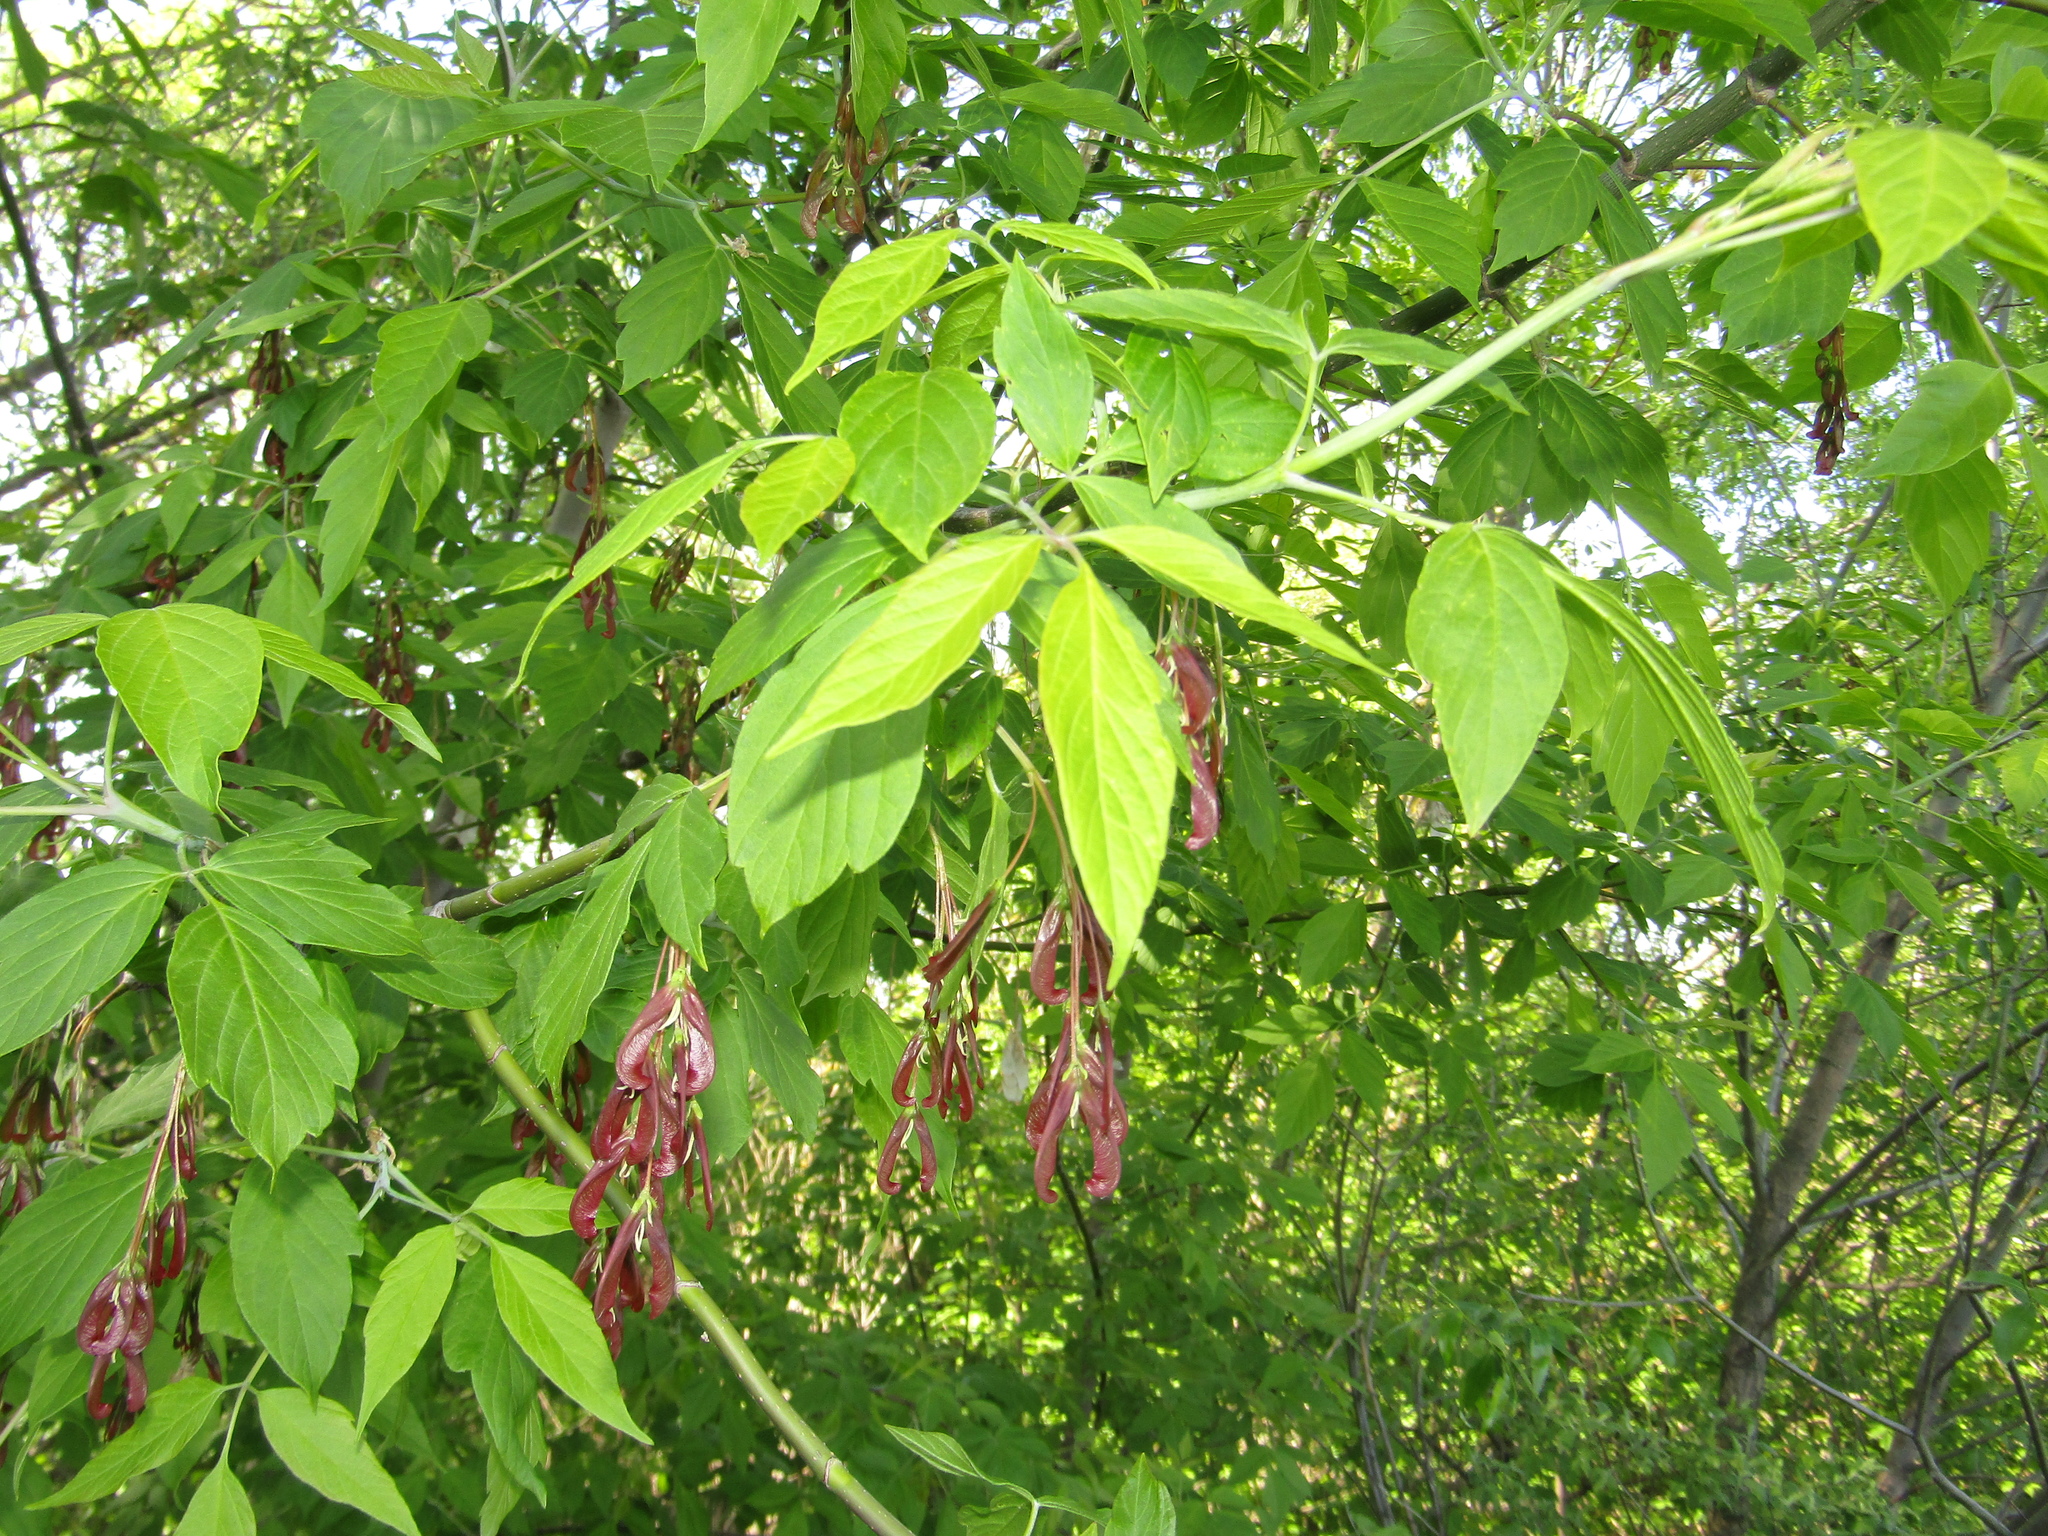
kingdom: Plantae
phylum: Tracheophyta
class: Magnoliopsida
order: Sapindales
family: Sapindaceae
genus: Acer
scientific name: Acer negundo
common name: Ashleaf maple
